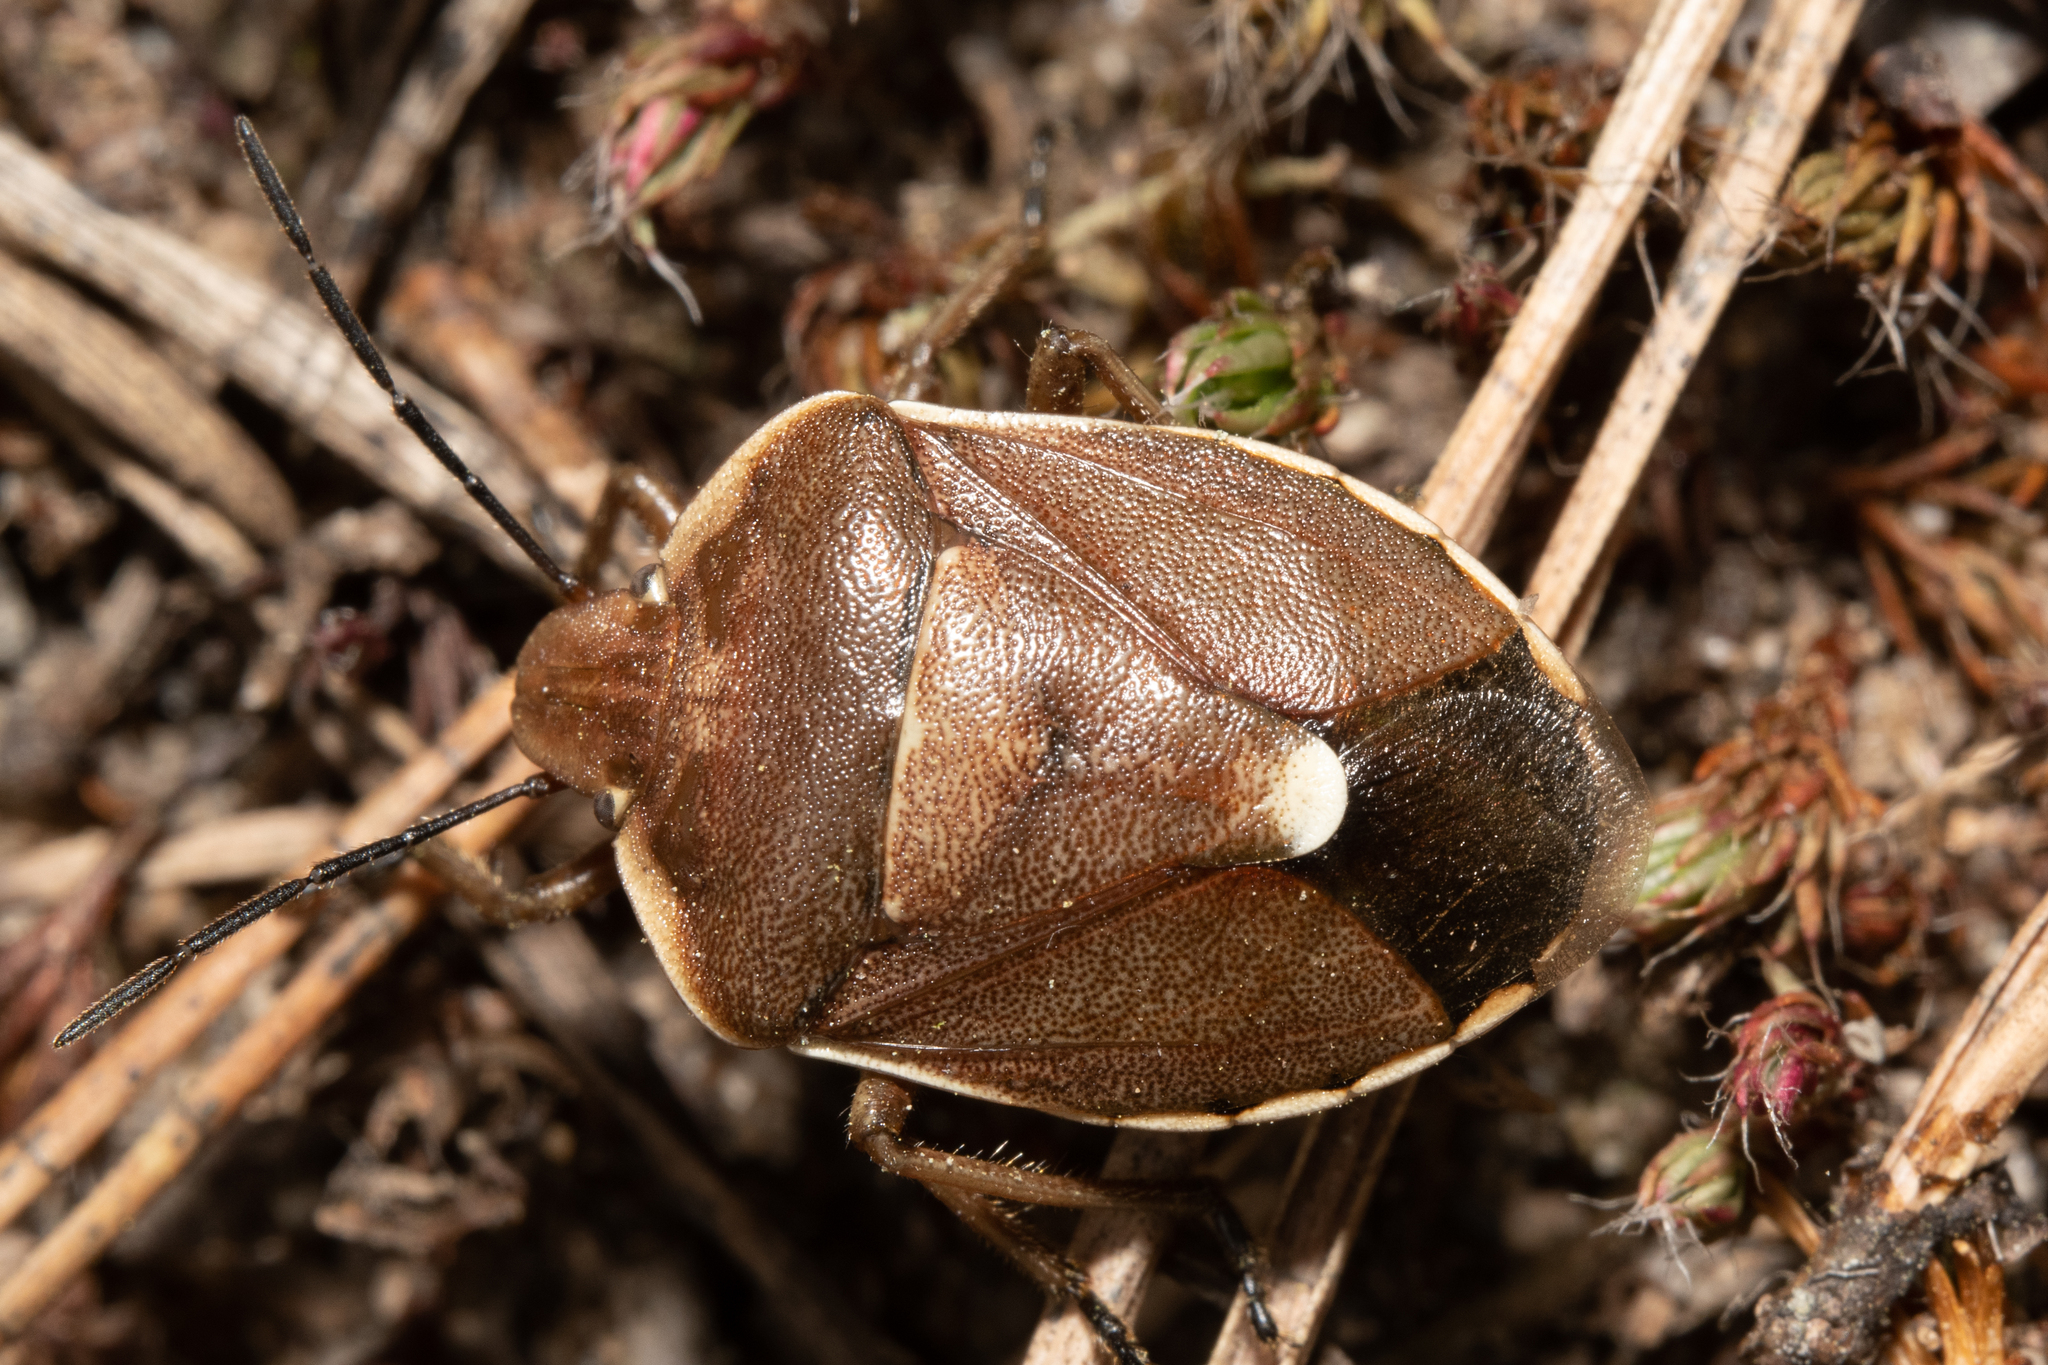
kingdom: Animalia
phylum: Arthropoda
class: Insecta
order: Hemiptera
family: Pentatomidae
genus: Chlorochroa
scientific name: Chlorochroa pinicola
